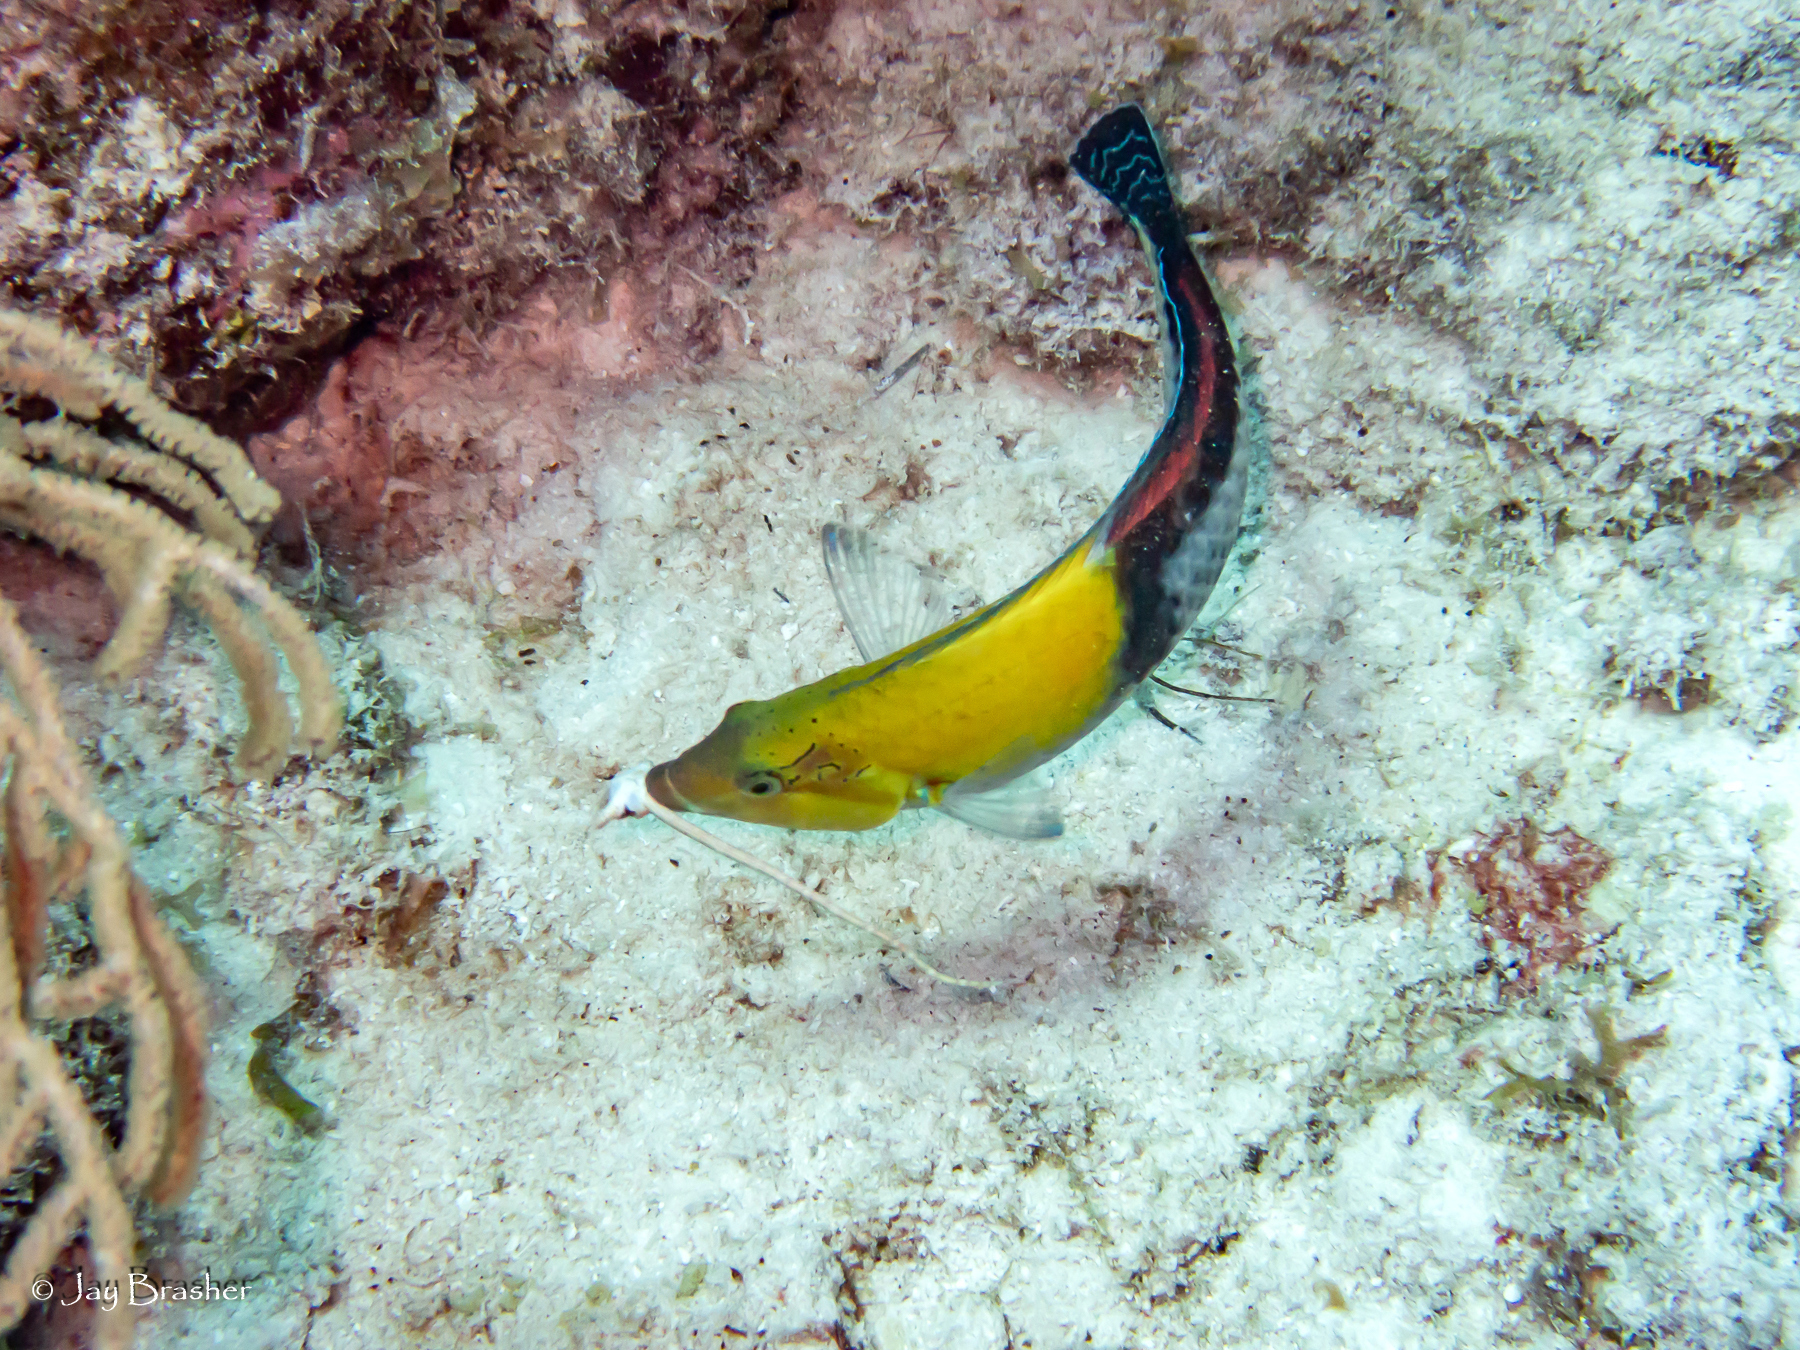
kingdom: Animalia
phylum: Chordata
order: Perciformes
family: Labridae
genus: Halichoeres
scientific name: Halichoeres garnoti
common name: Yellowhead wrasse
